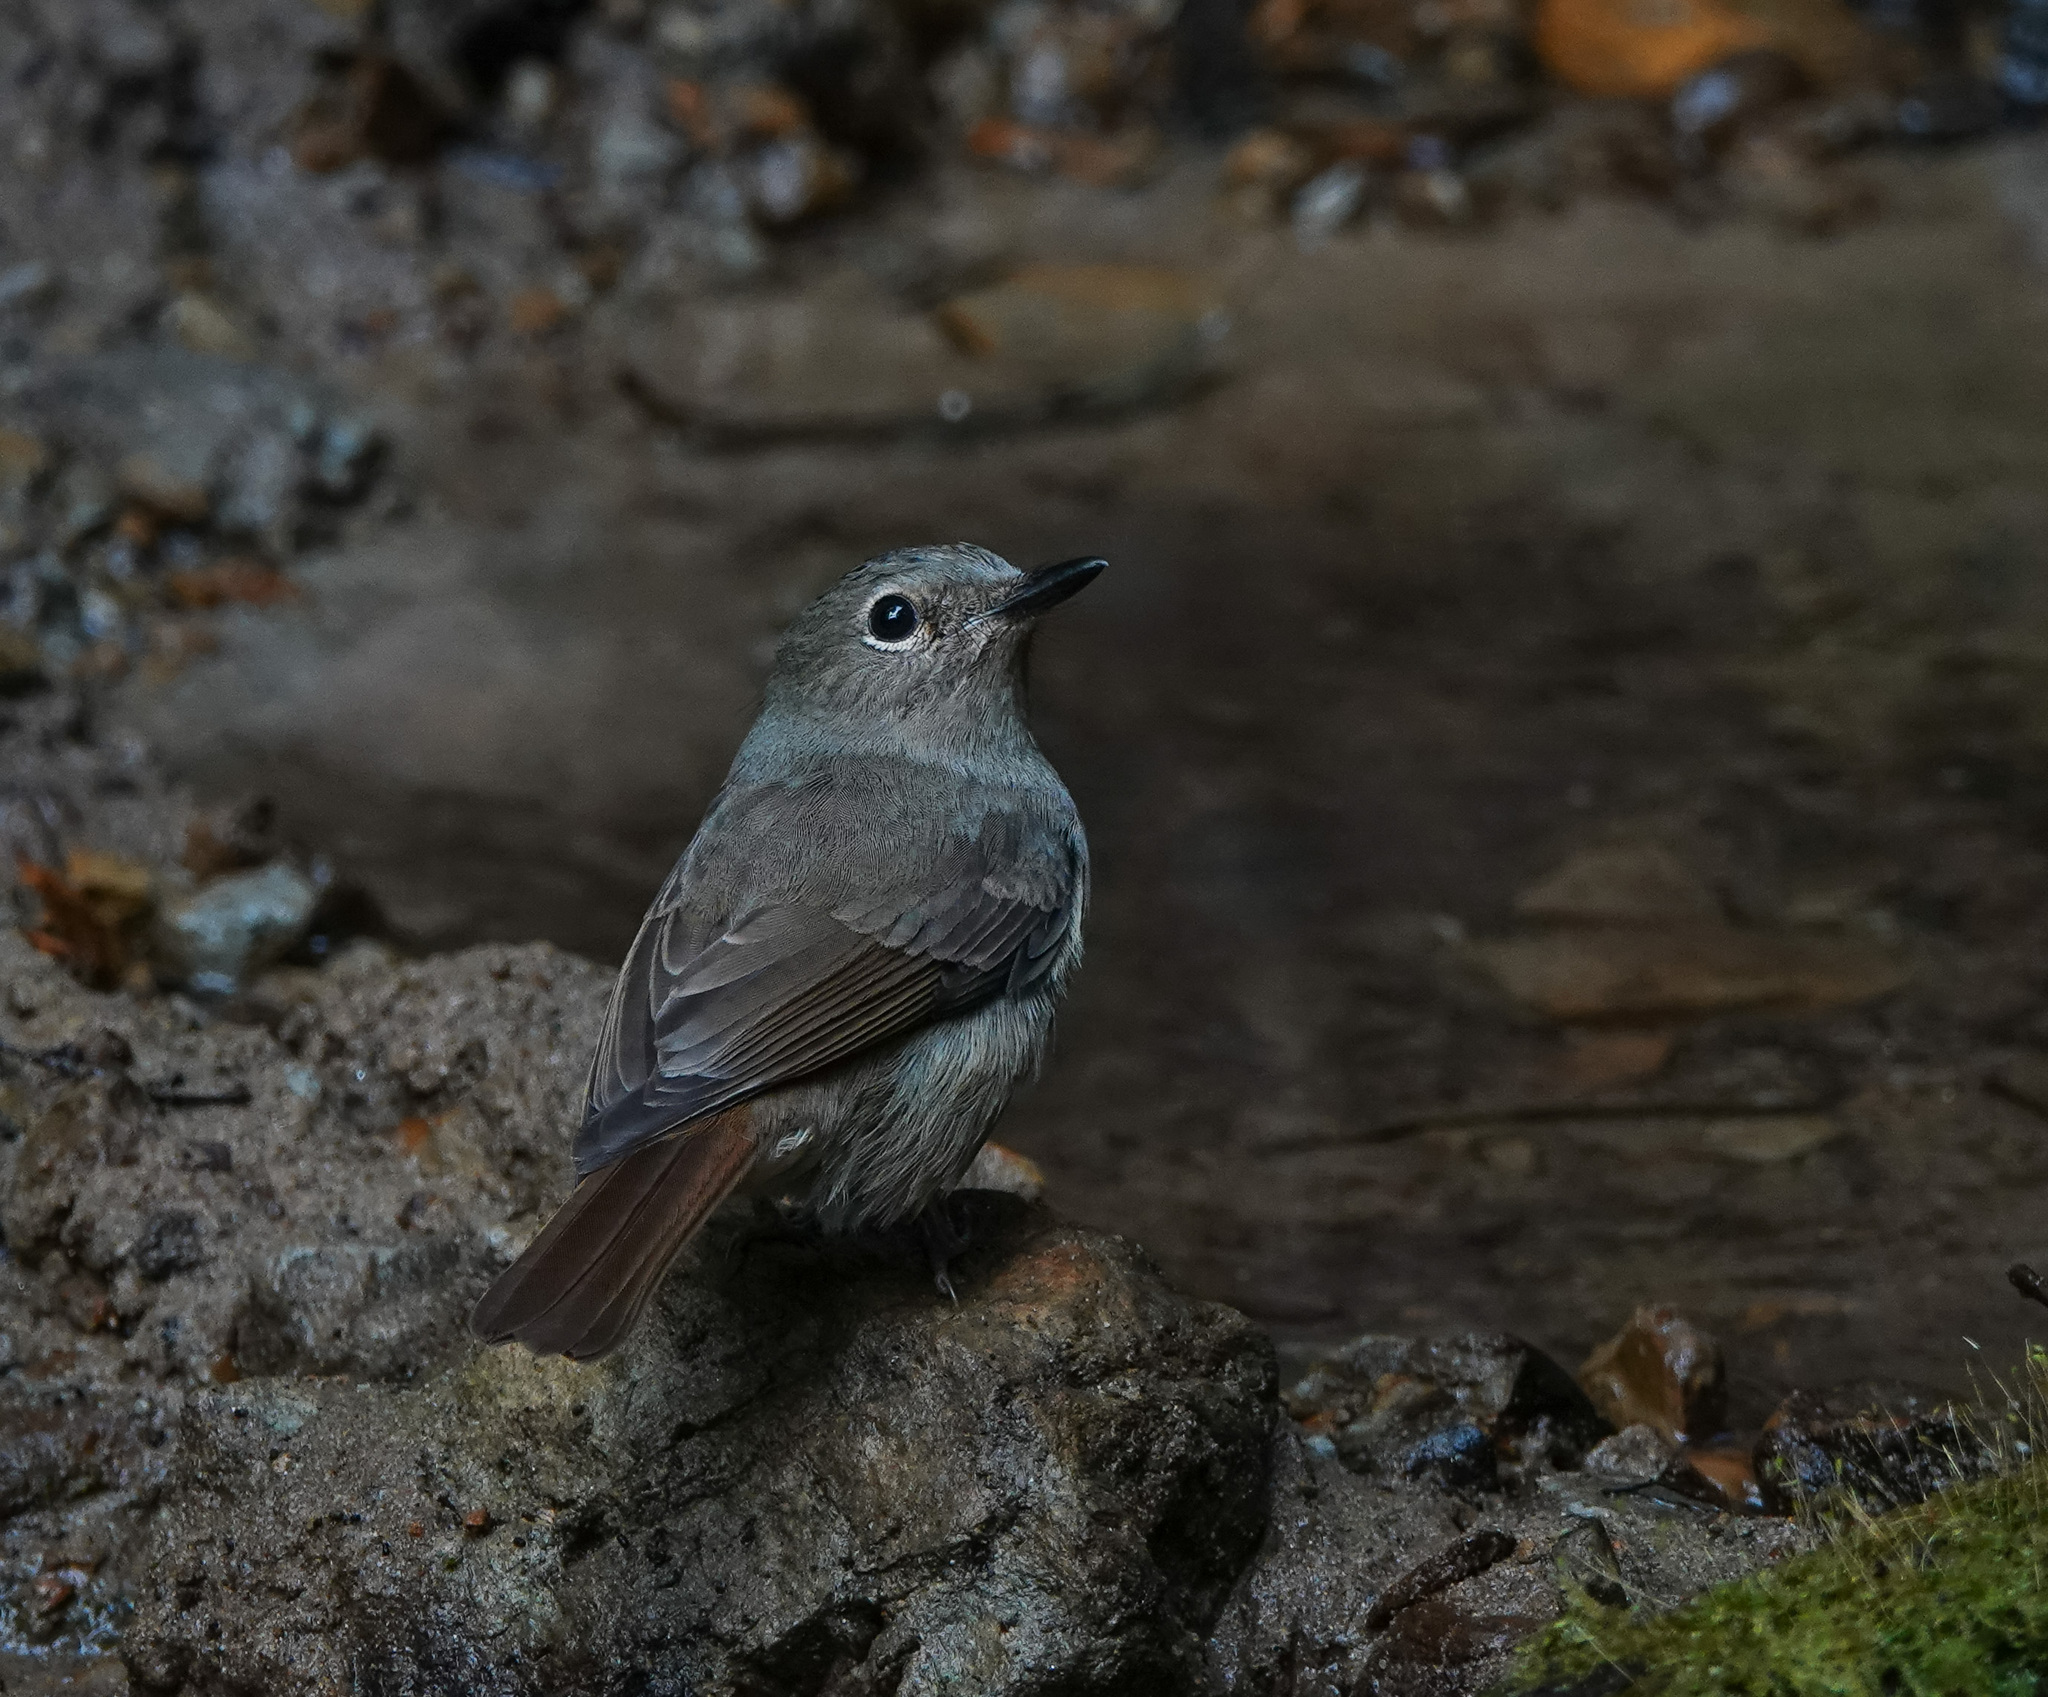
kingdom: Animalia
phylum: Chordata
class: Aves
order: Passeriformes
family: Muscicapidae
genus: Cyornis
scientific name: Cyornis unicolor
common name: Pale blue flycatcher
